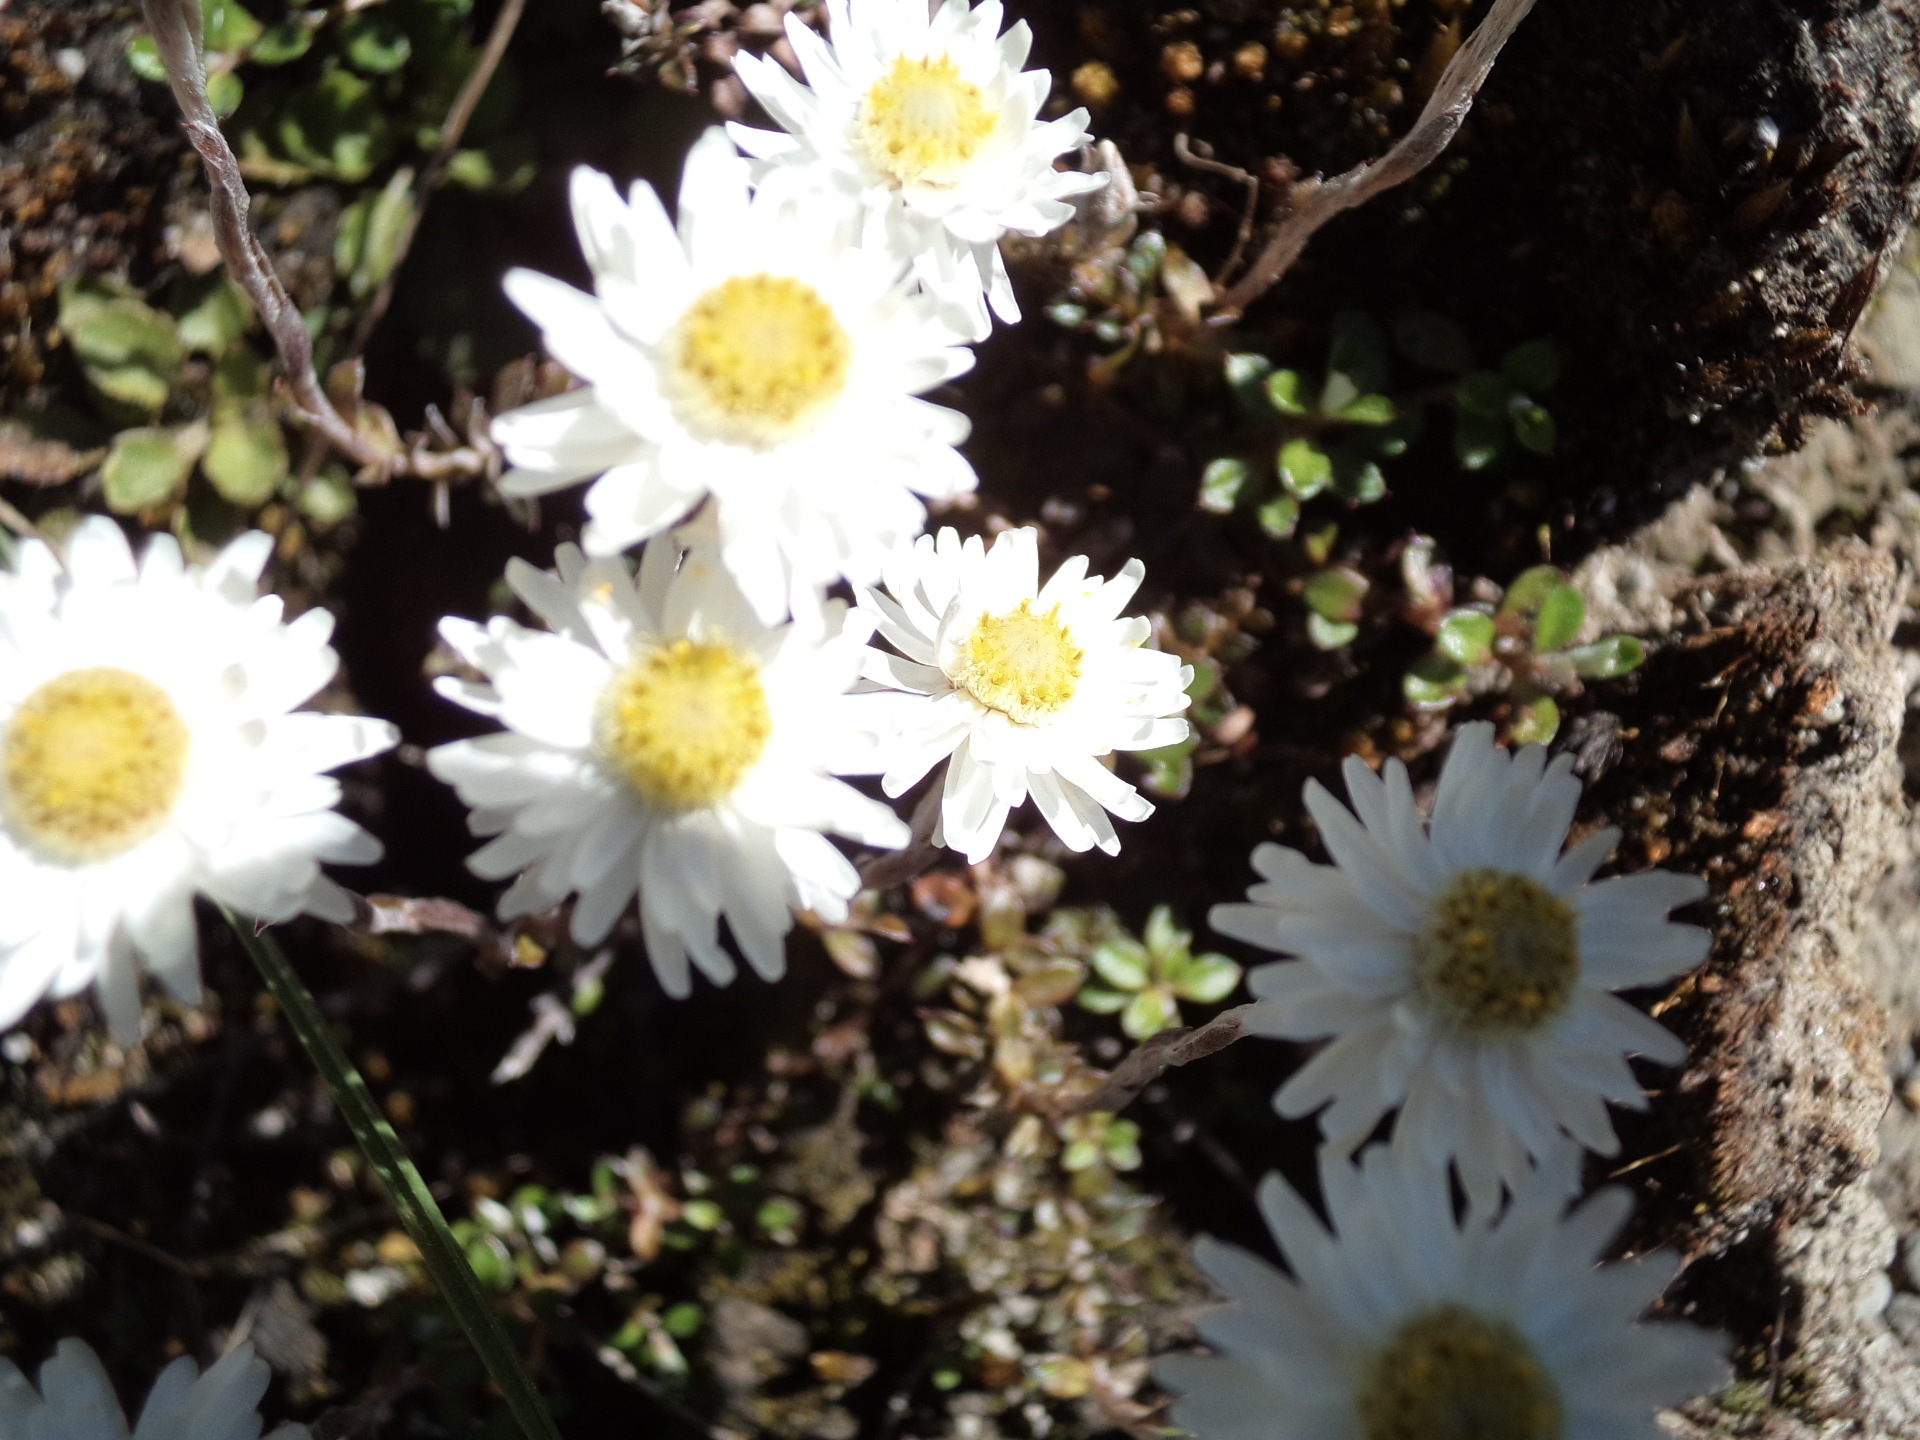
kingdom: Plantae
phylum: Tracheophyta
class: Magnoliopsida
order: Asterales
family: Asteraceae
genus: Anaphalioides
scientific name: Anaphalioides bellidioides
